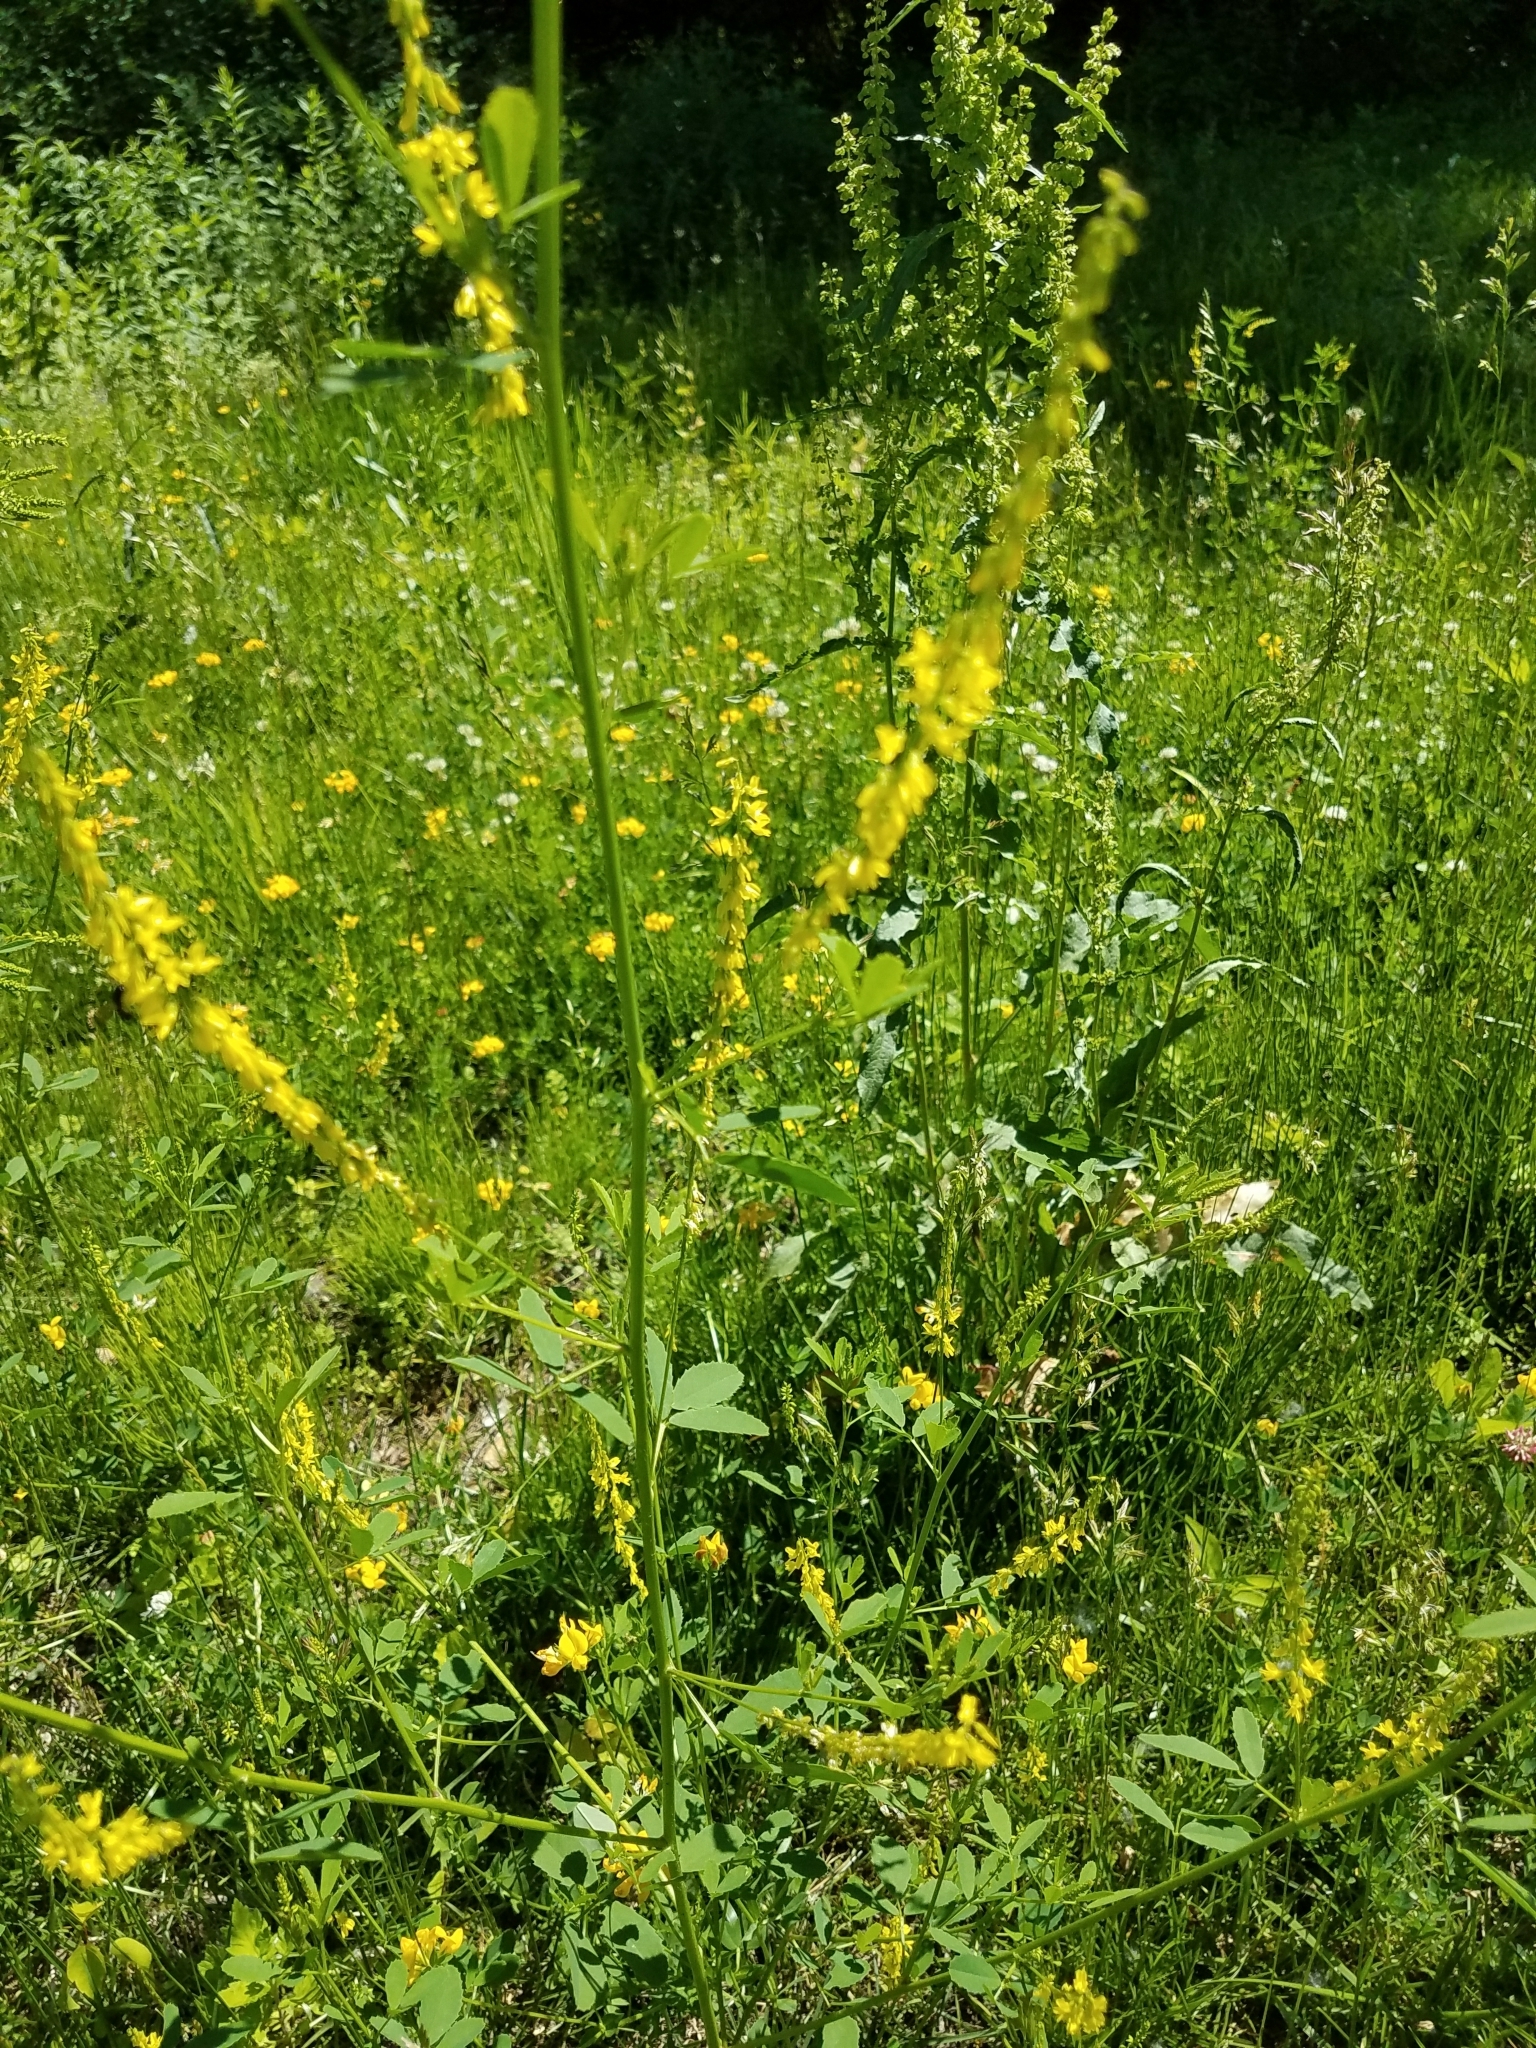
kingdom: Plantae
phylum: Tracheophyta
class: Magnoliopsida
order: Fabales
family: Fabaceae
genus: Melilotus
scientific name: Melilotus officinalis
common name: Sweetclover
